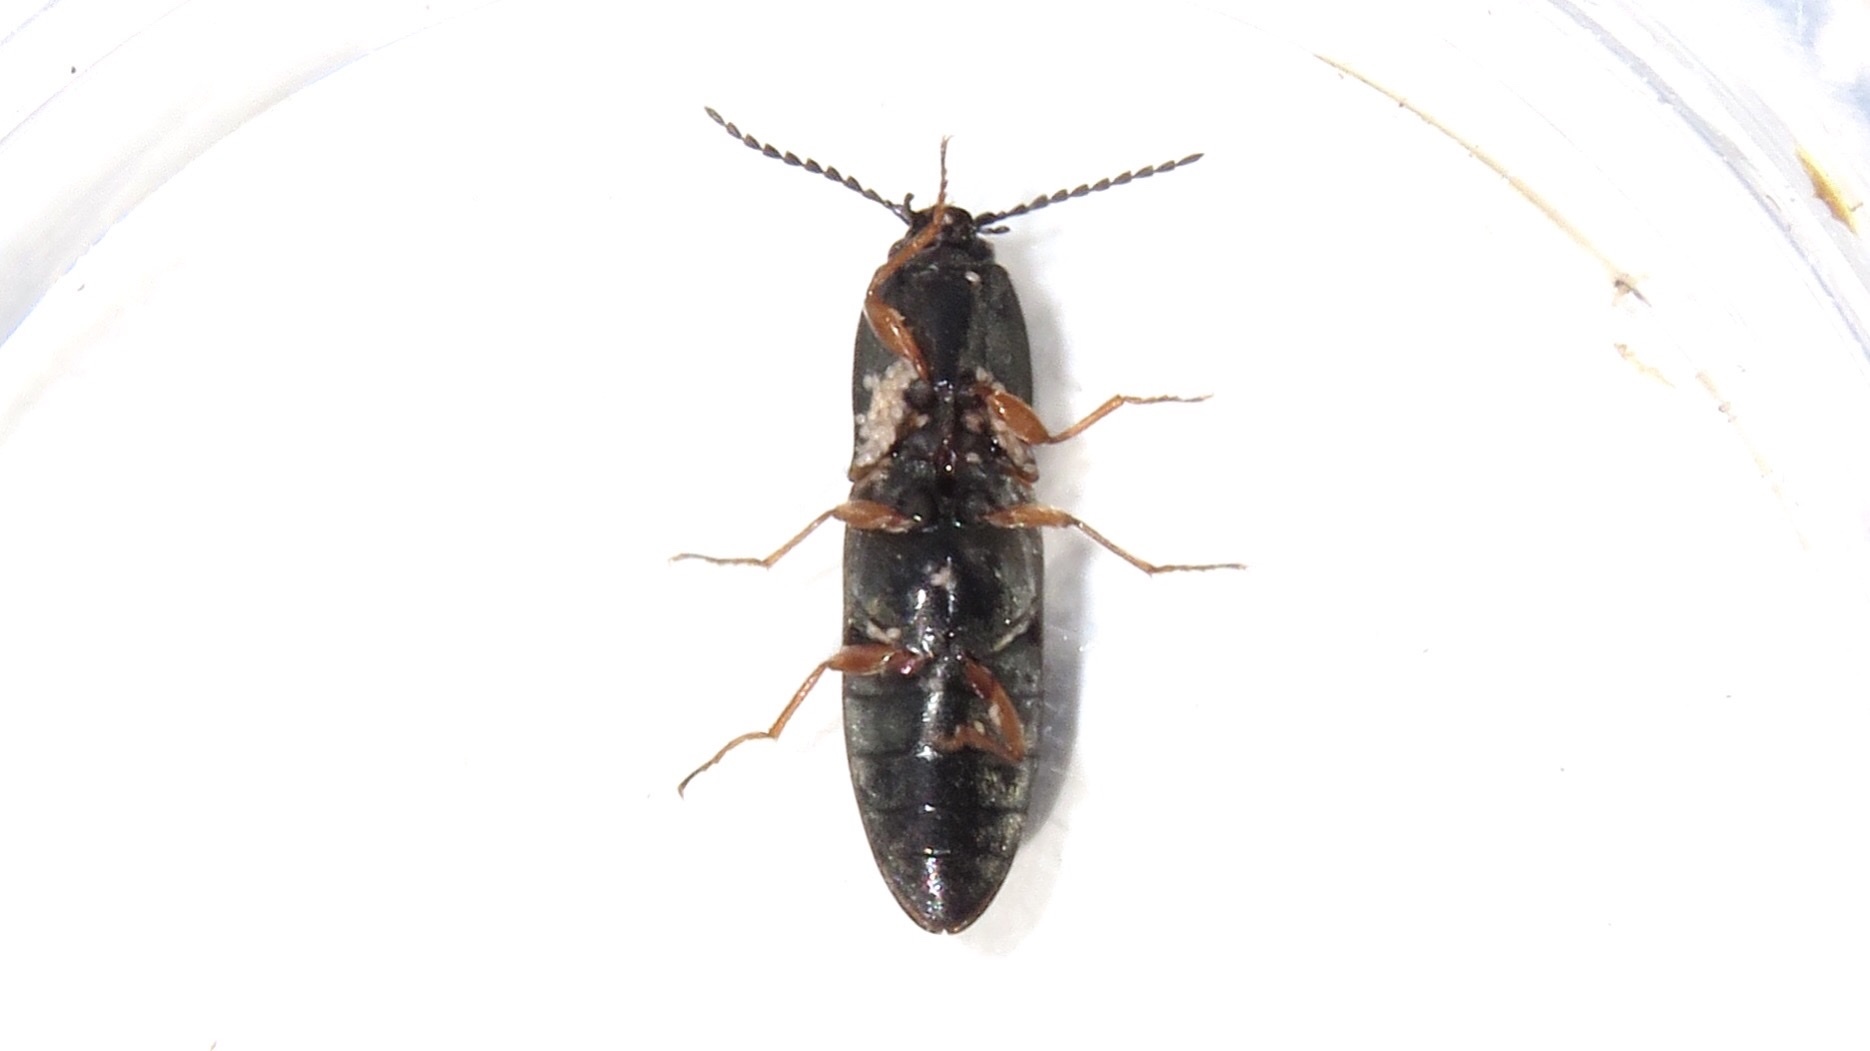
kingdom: Animalia
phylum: Arthropoda
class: Insecta
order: Coleoptera
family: Elateridae
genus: Corymbitodes
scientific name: Corymbitodes tarsalis
